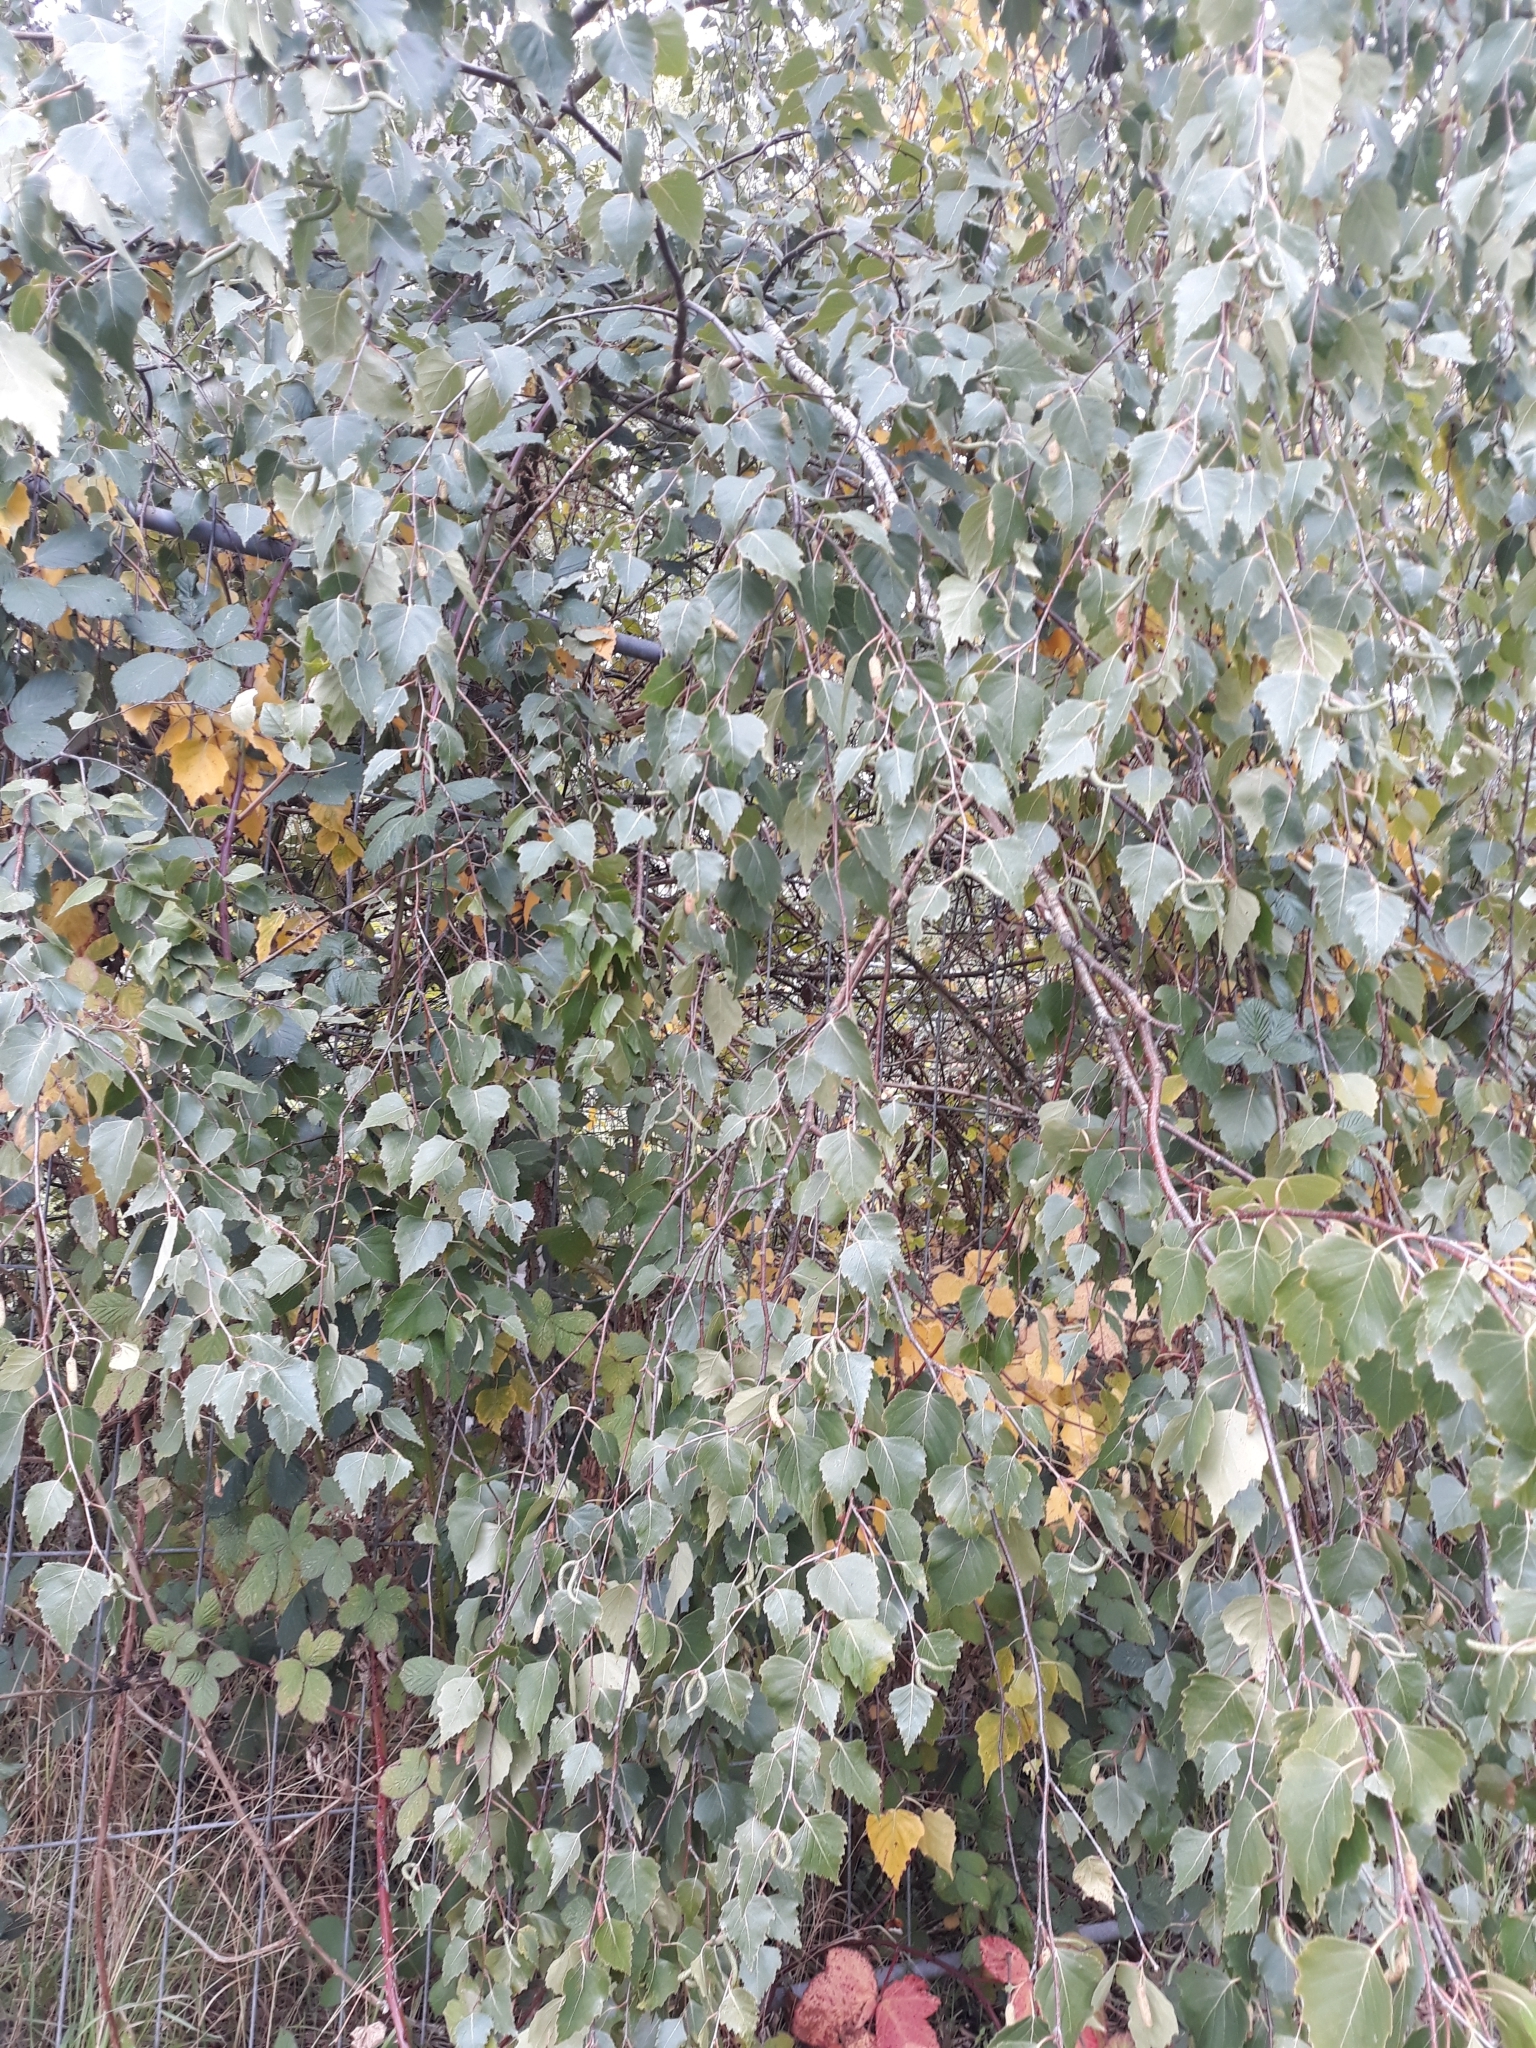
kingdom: Plantae
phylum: Tracheophyta
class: Magnoliopsida
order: Fagales
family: Betulaceae
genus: Betula
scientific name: Betula pendula
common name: Silver birch
